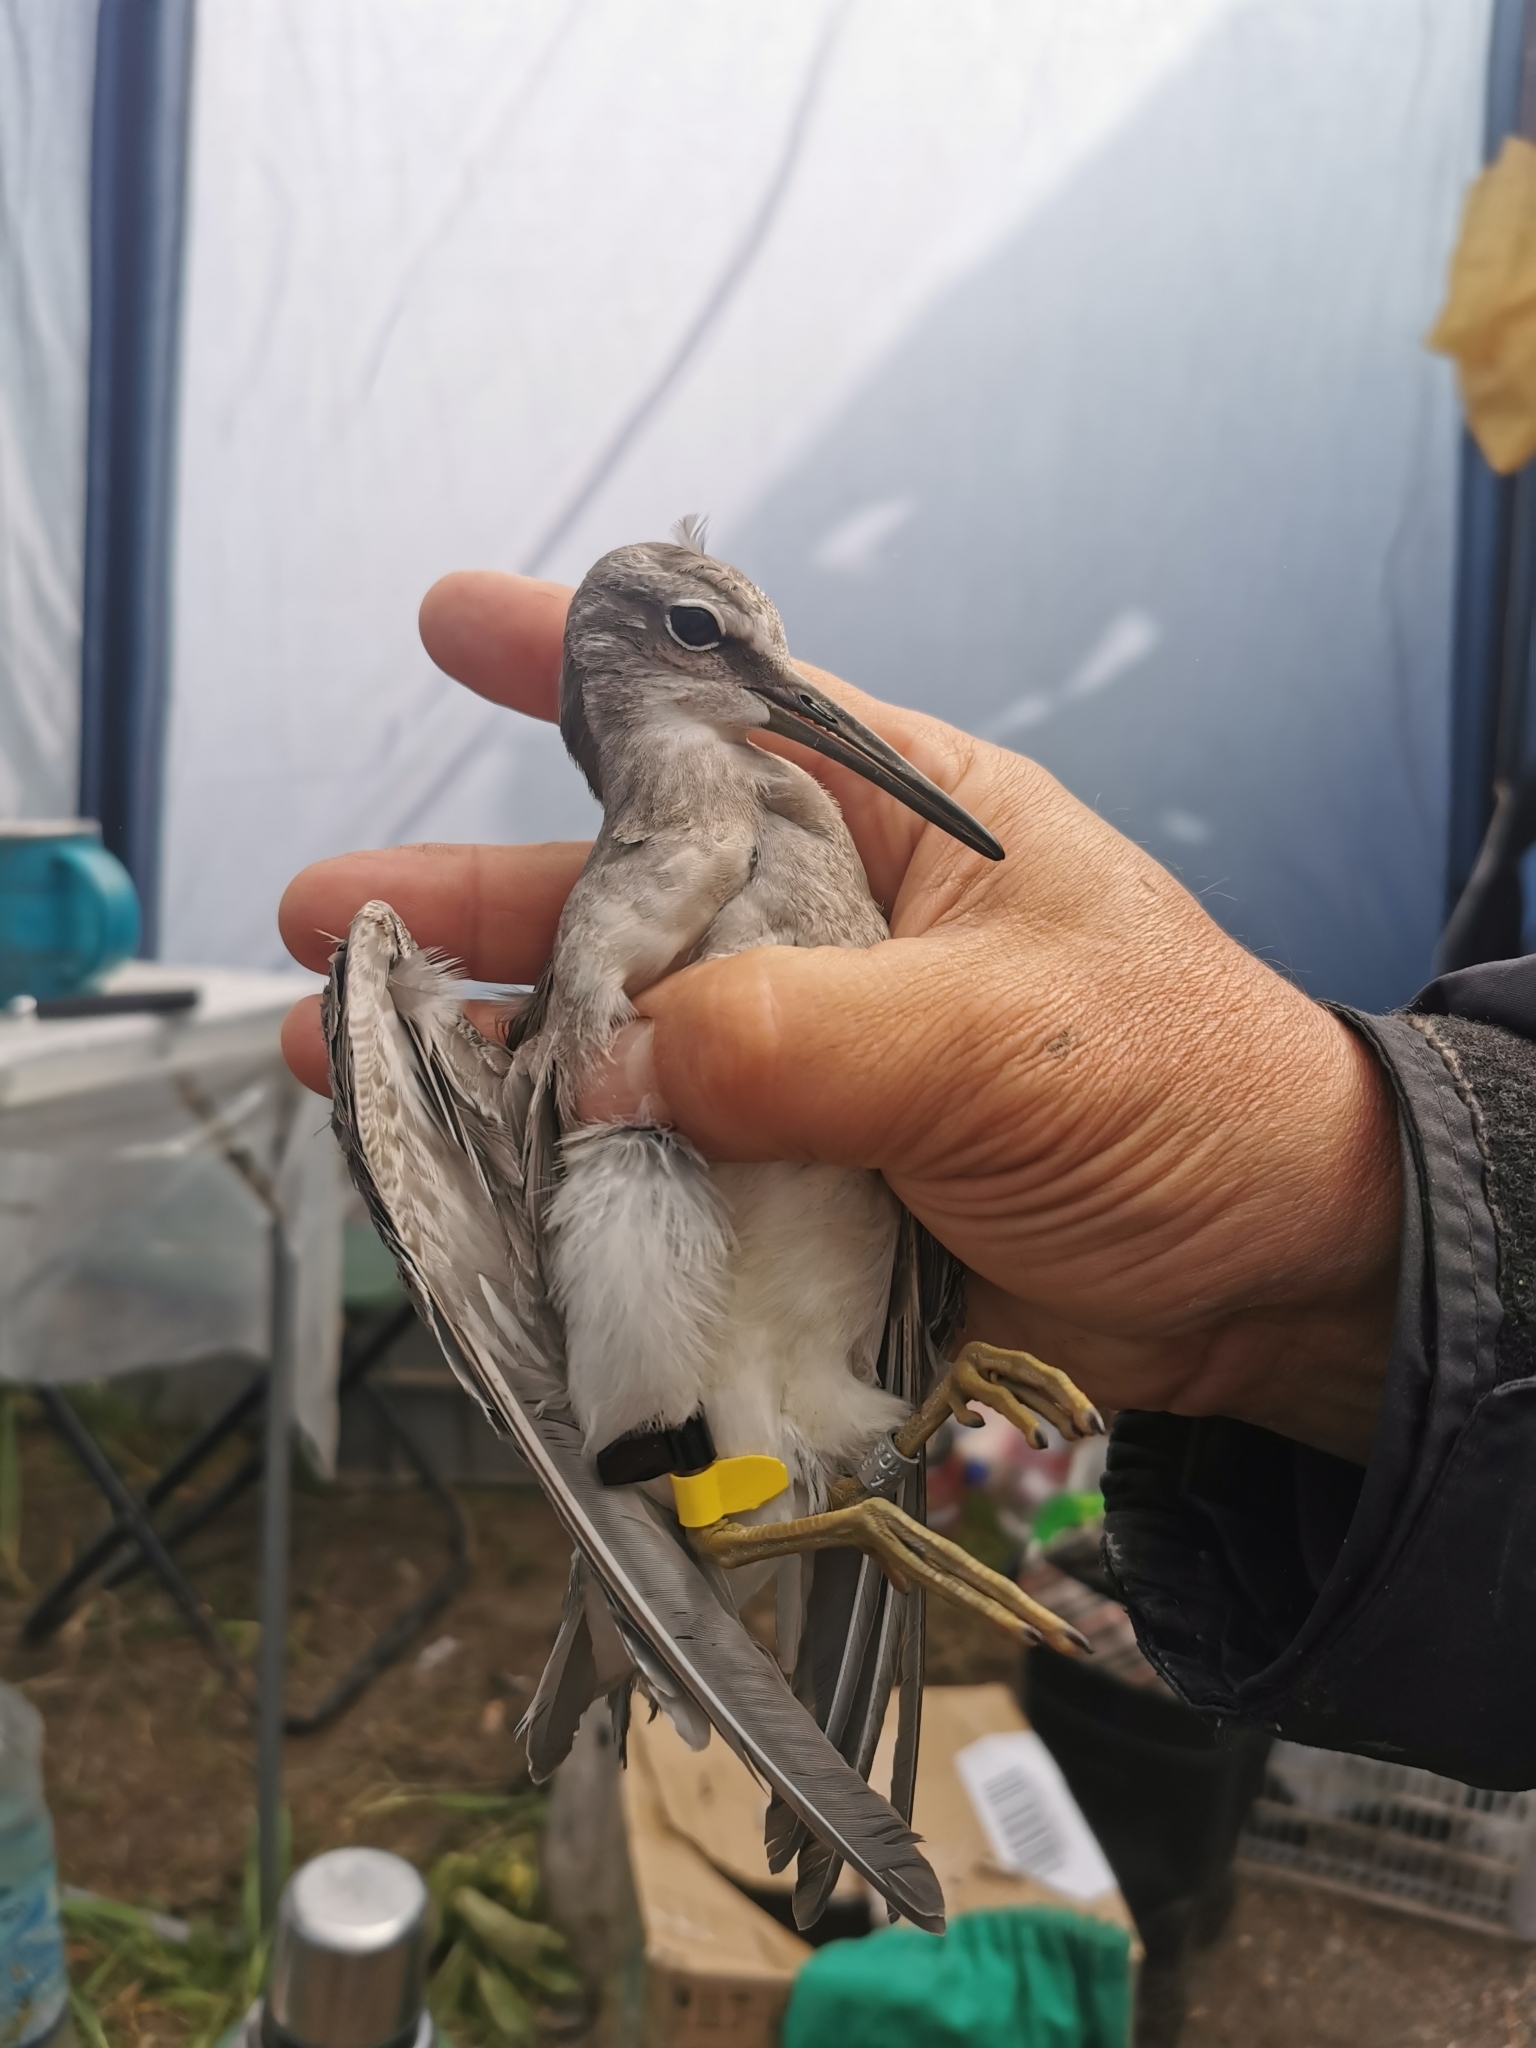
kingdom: Animalia
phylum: Chordata
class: Aves
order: Charadriiformes
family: Scolopacidae
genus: Tringa
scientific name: Tringa brevipes
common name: Grey-tailed tattler
